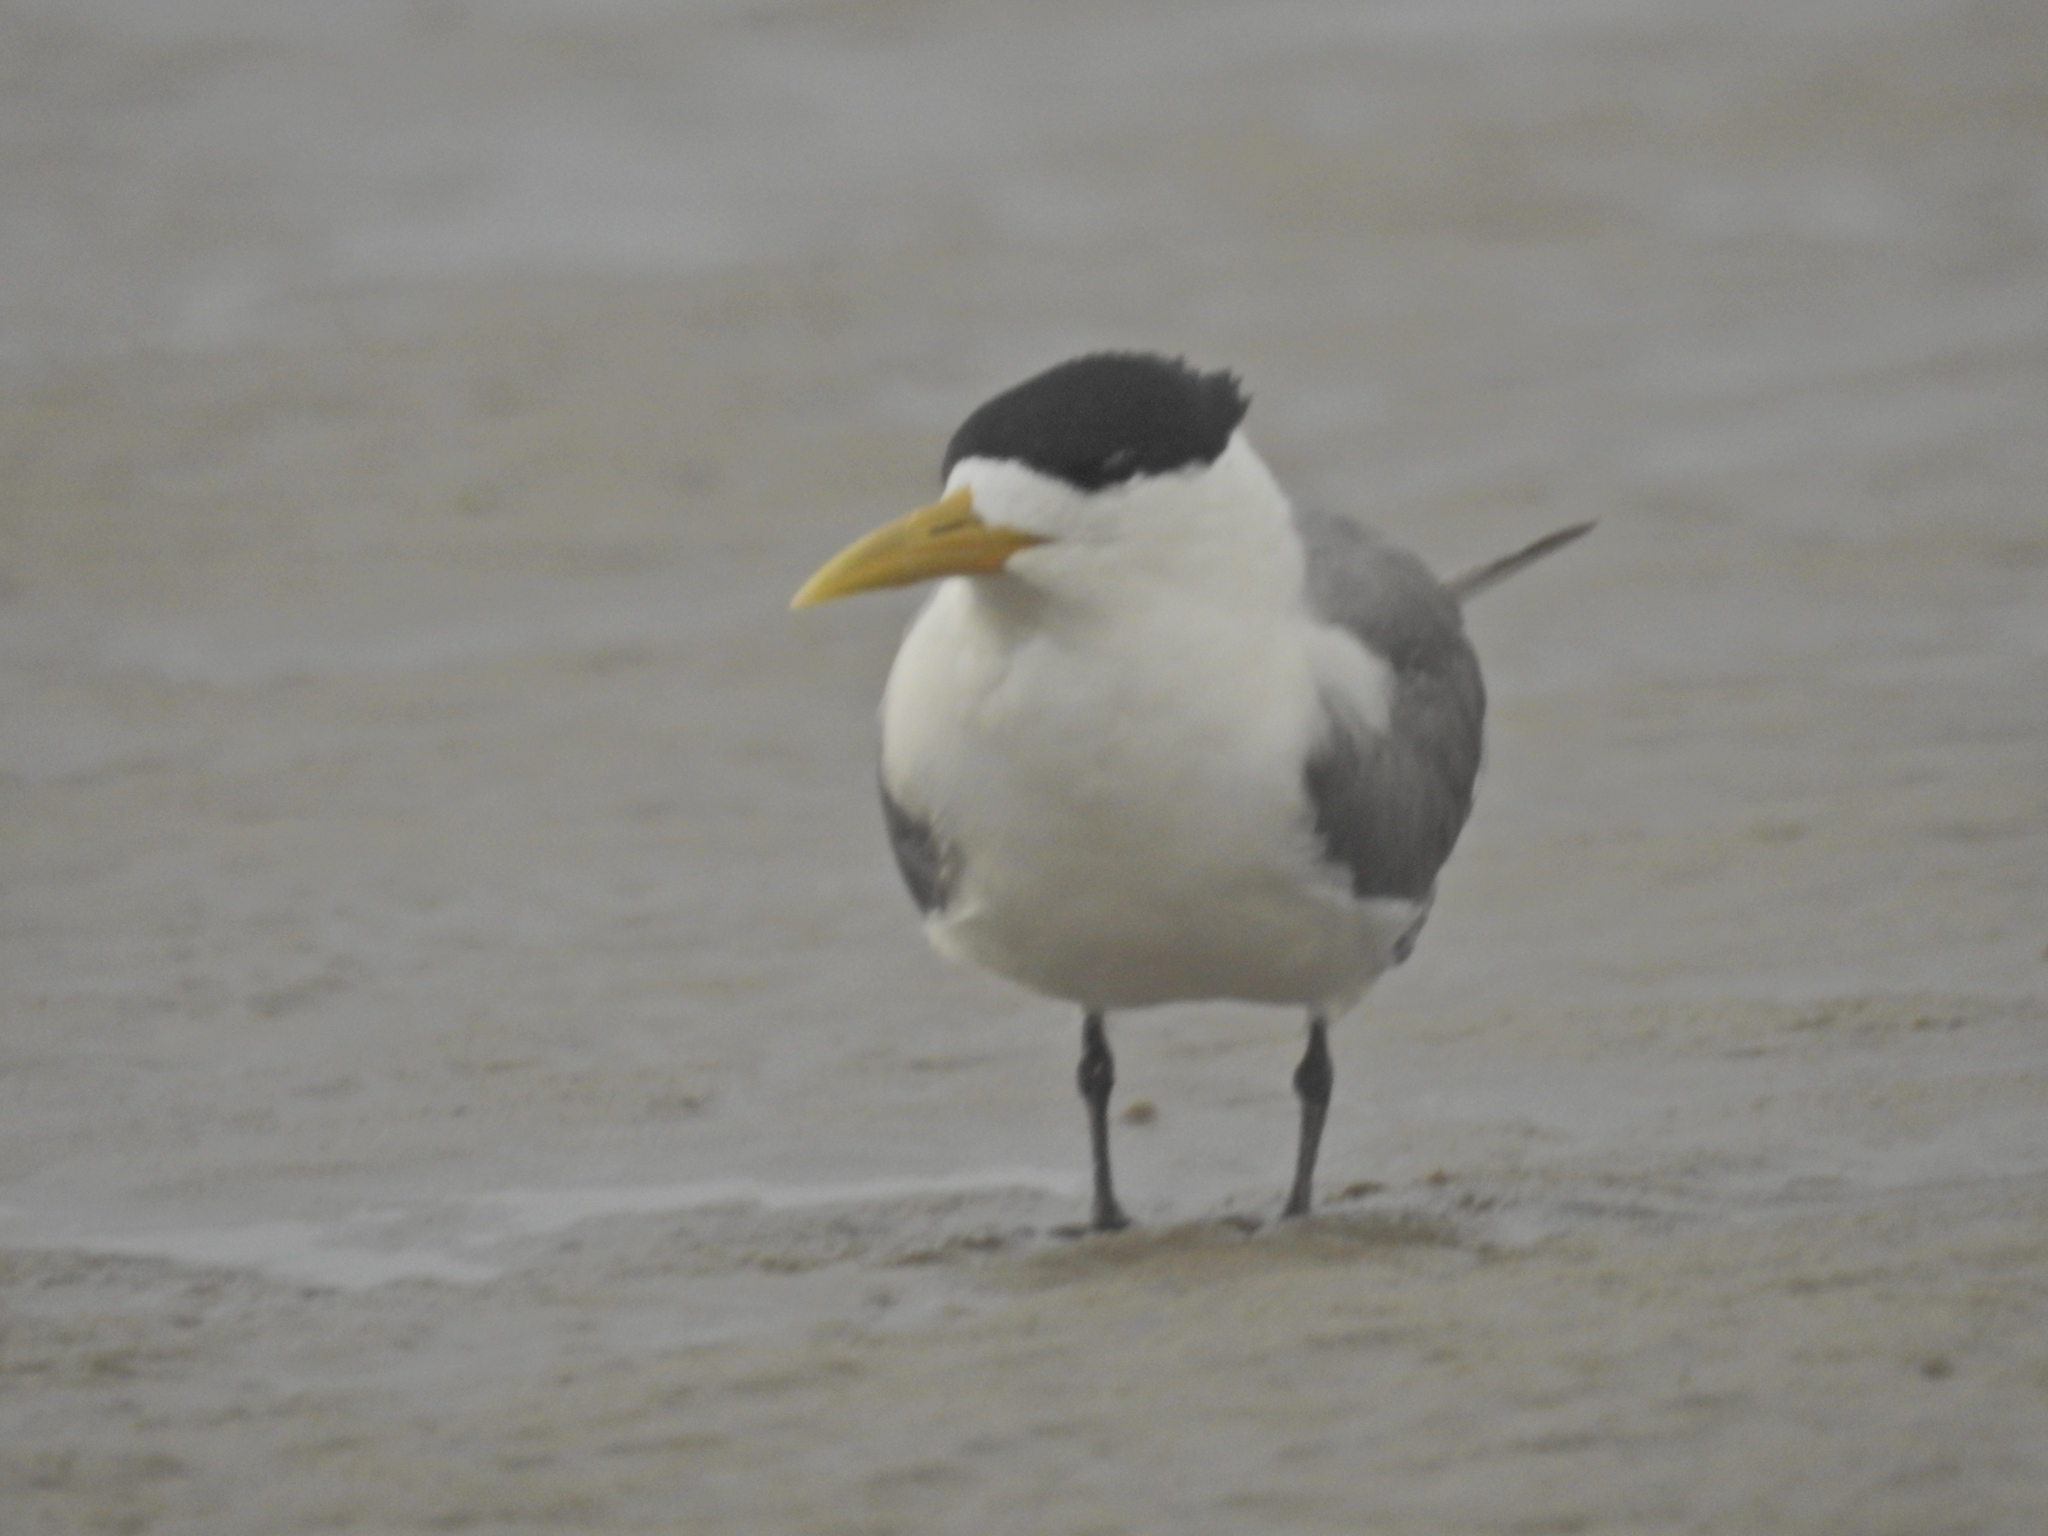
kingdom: Animalia
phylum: Chordata
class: Aves
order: Charadriiformes
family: Laridae
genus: Thalasseus
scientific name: Thalasseus bergii
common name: Greater crested tern
